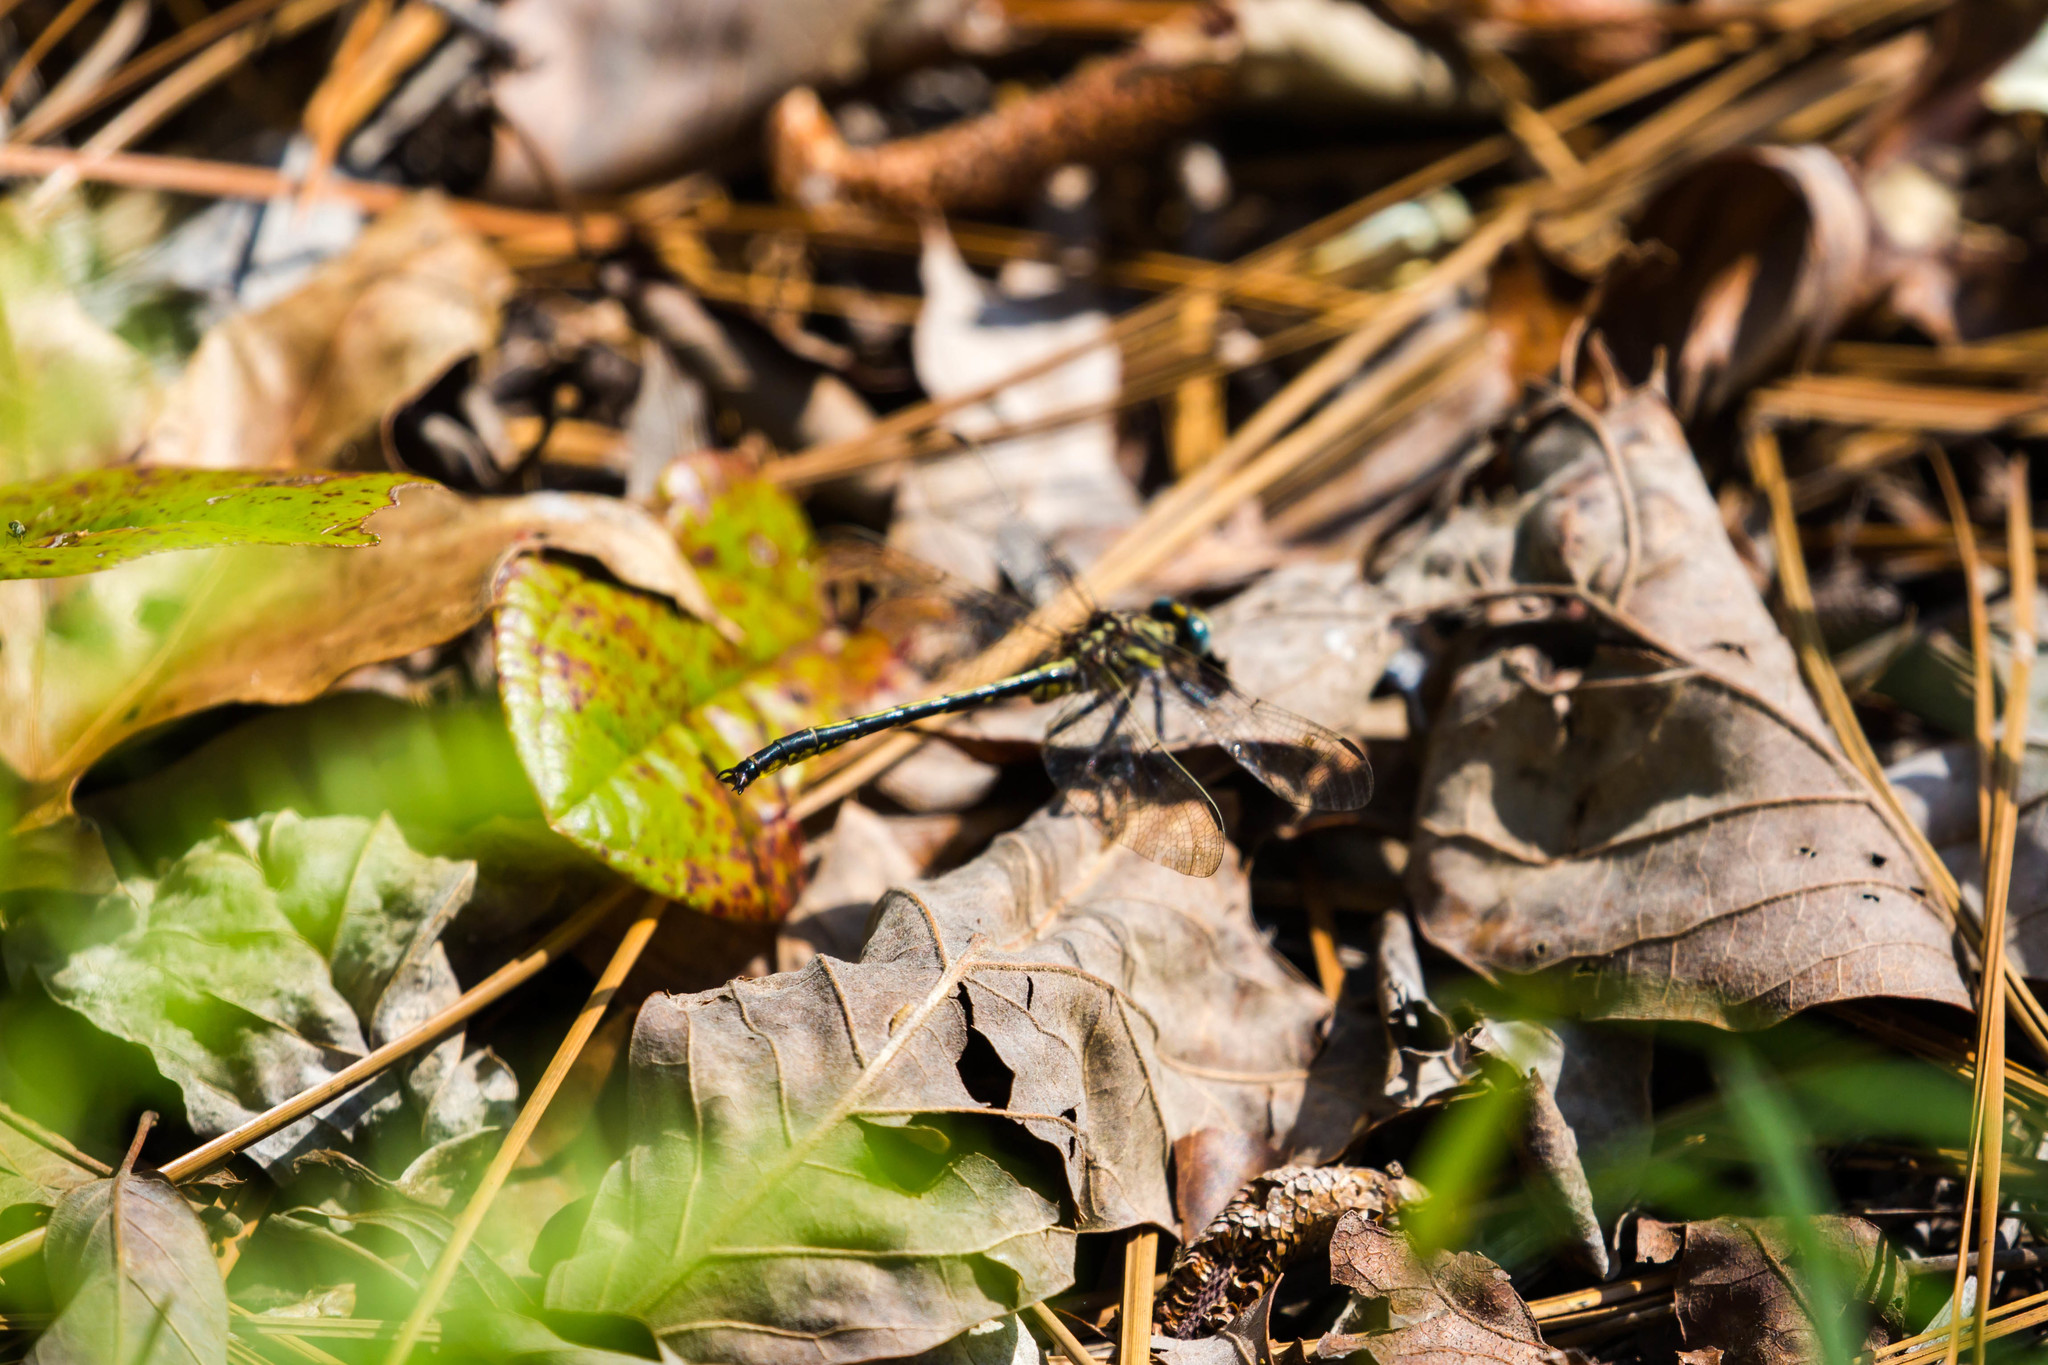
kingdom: Animalia
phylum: Arthropoda
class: Insecta
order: Odonata
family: Gomphidae
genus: Phanogomphus
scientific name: Phanogomphus hodgesi
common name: Hodges' clubtail
